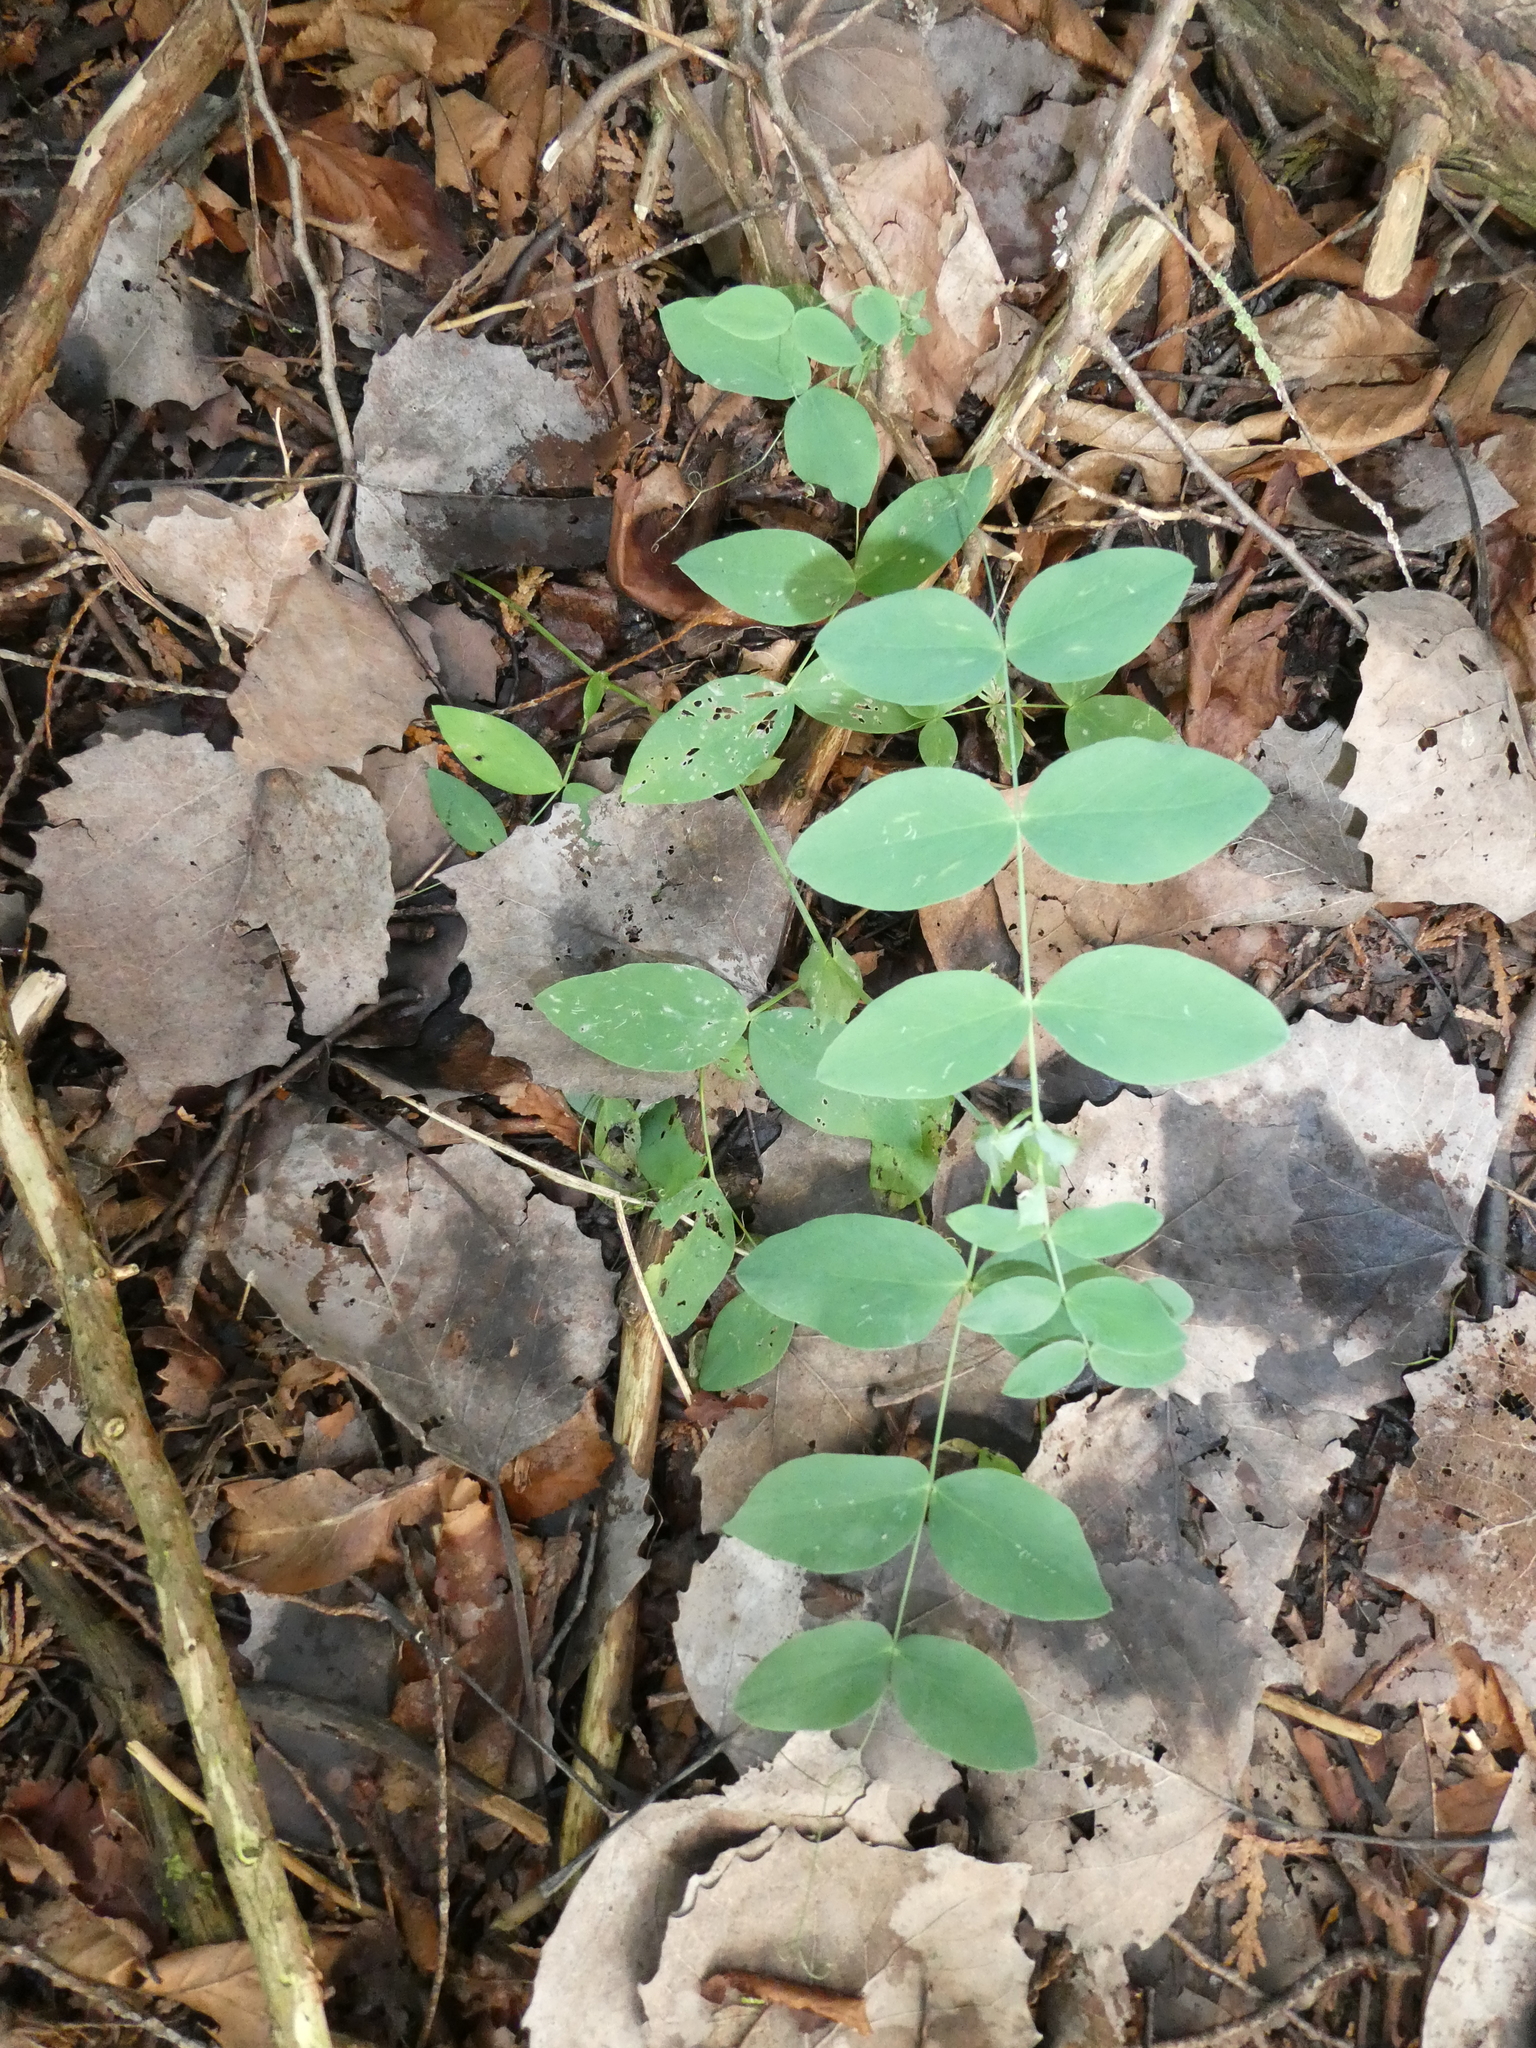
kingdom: Plantae
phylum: Tracheophyta
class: Magnoliopsida
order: Fabales
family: Fabaceae
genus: Lathyrus
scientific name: Lathyrus ochroleucus
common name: Pale vetchling
